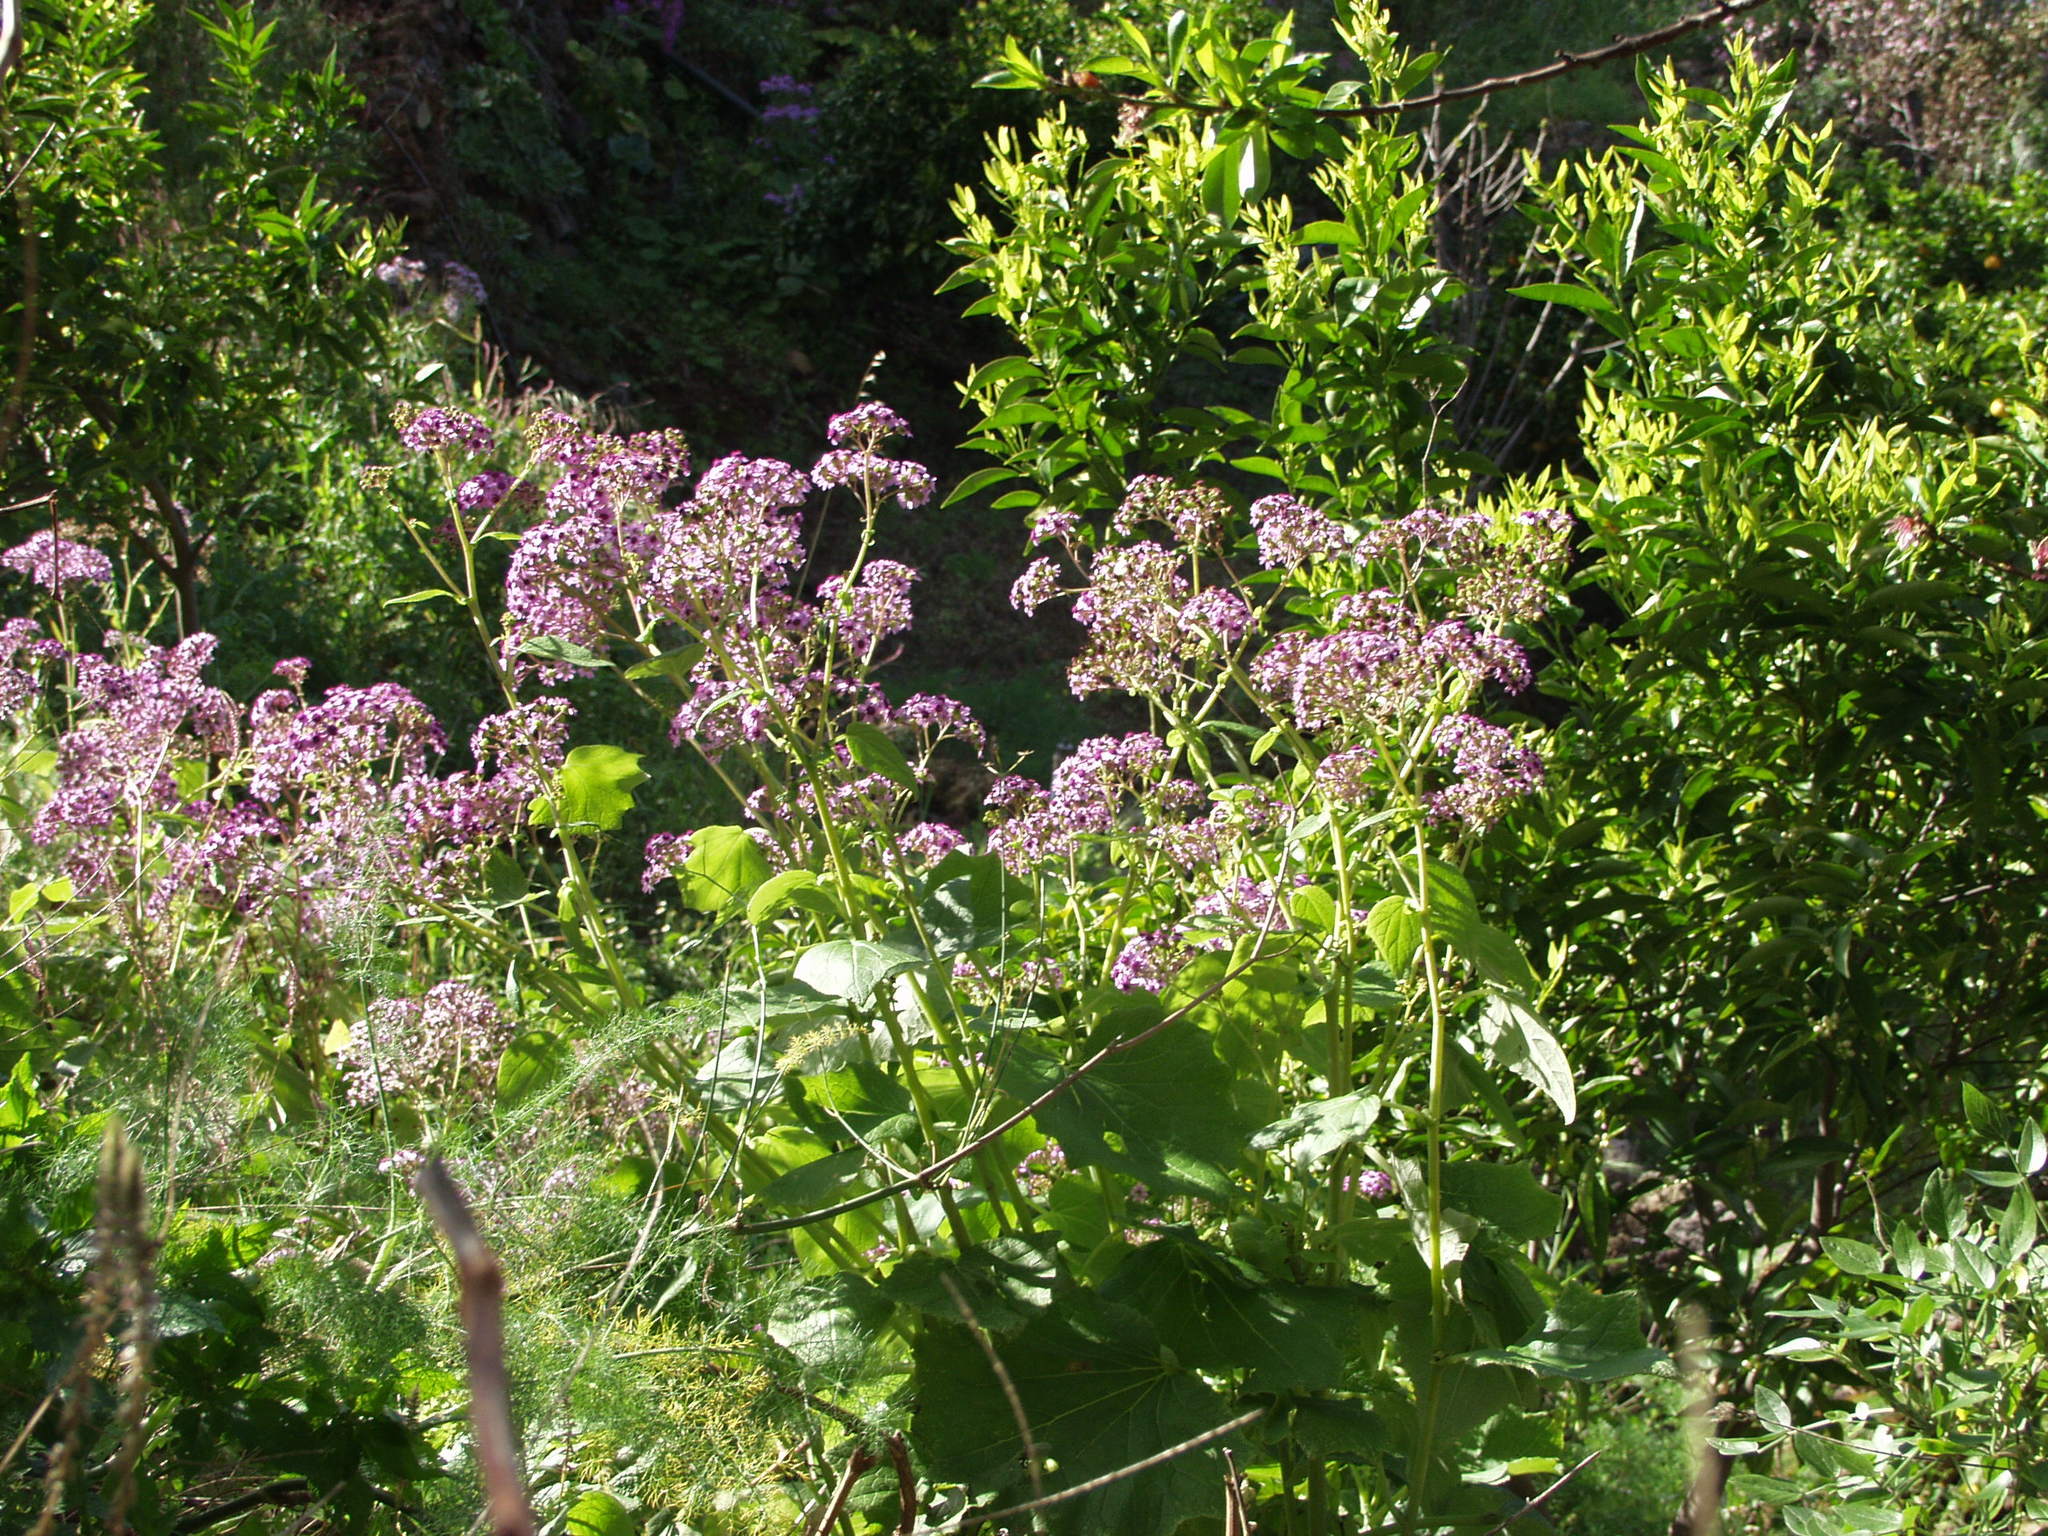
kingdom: Plantae
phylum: Tracheophyta
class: Magnoliopsida
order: Asterales
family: Asteraceae
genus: Pericallis
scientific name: Pericallis papyracea
